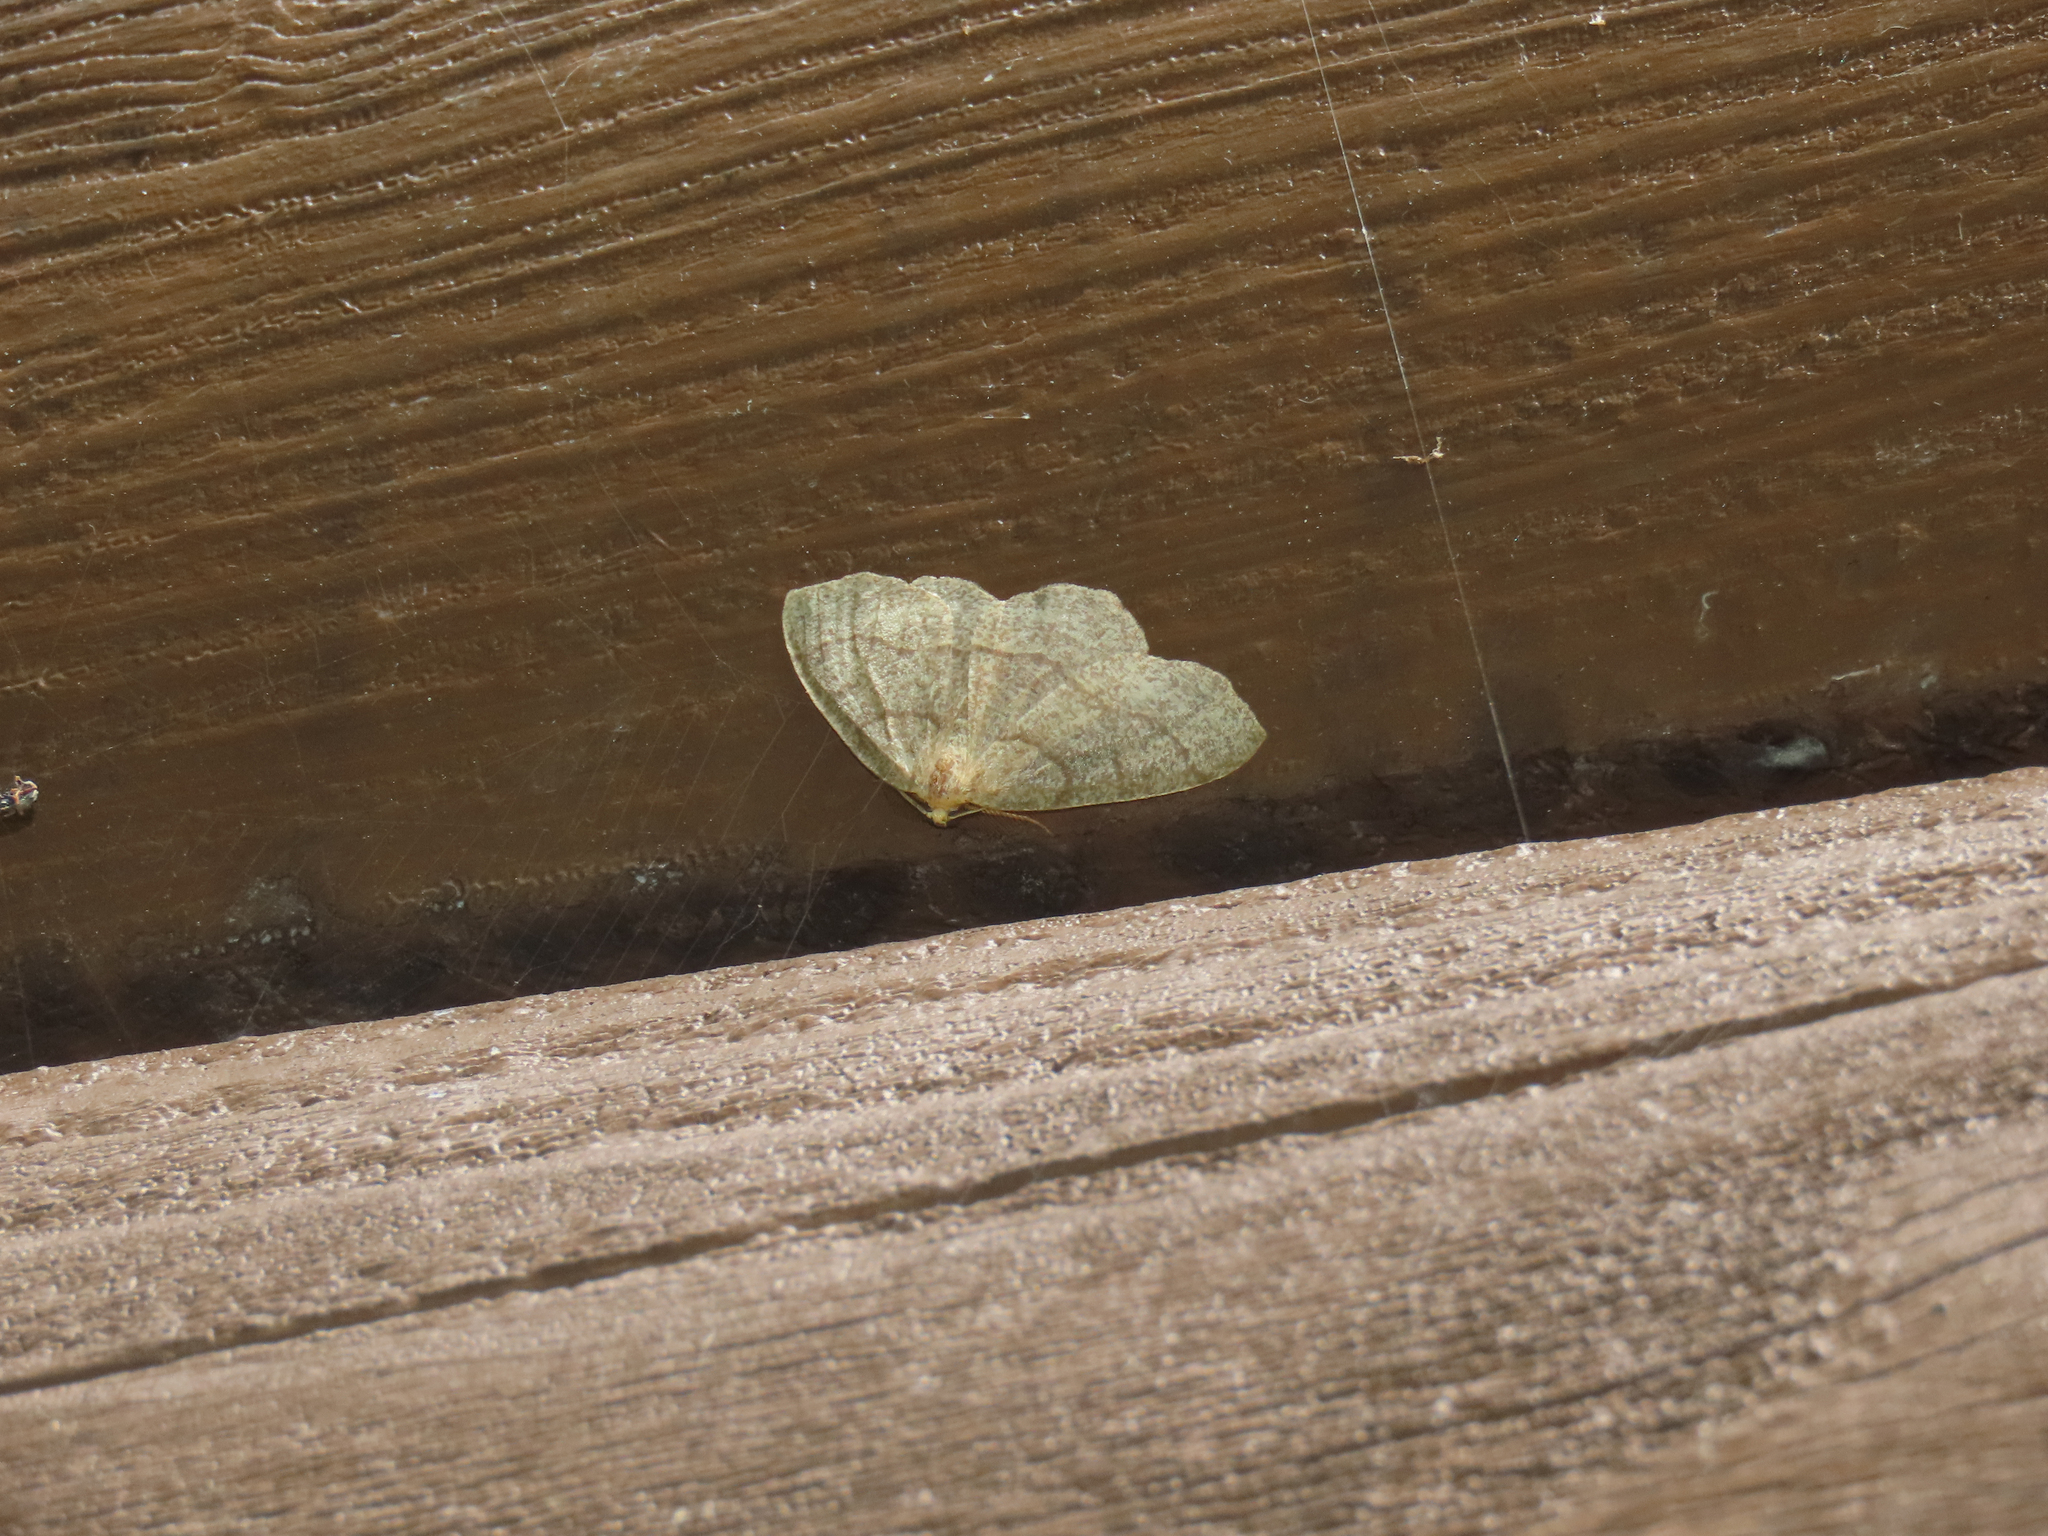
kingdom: Animalia
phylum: Arthropoda
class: Insecta
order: Lepidoptera
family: Geometridae
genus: Lambdina
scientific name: Lambdina fervidaria
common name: Curve-lined looper moth
